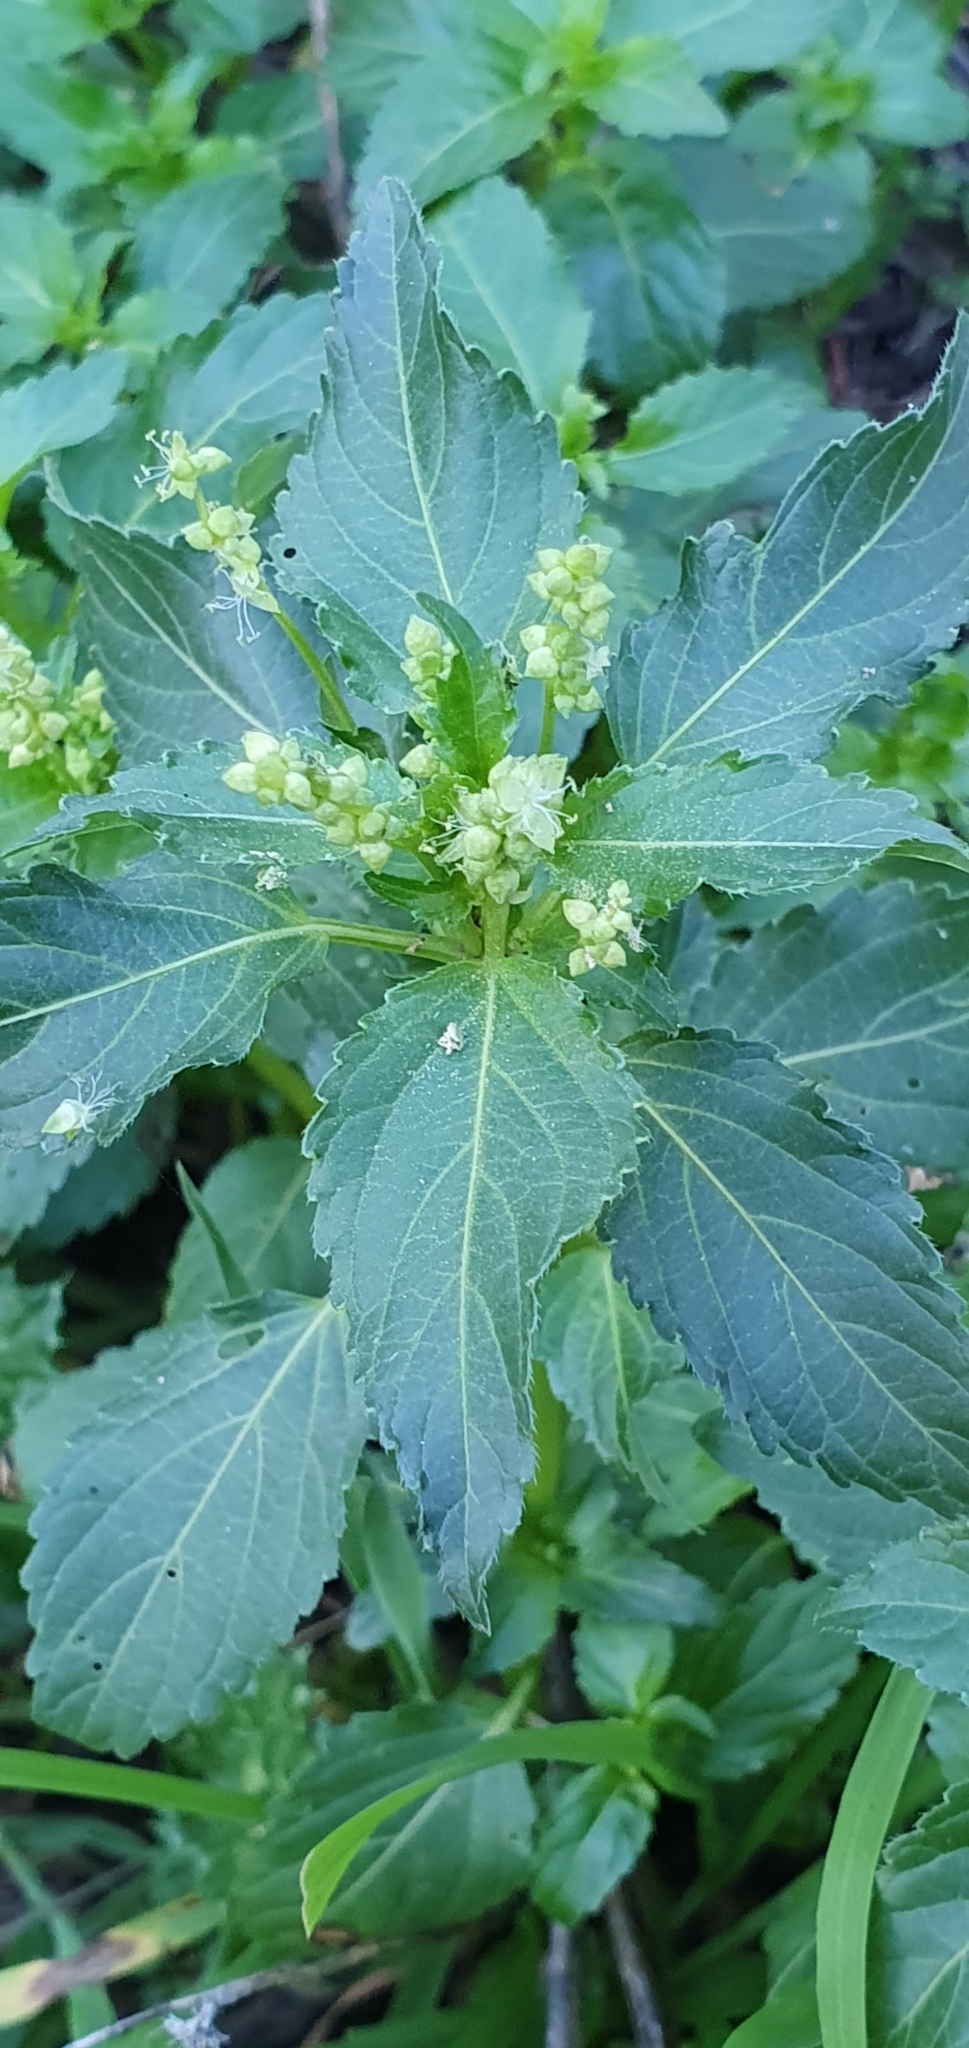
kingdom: Plantae
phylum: Tracheophyta
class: Magnoliopsida
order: Malpighiales
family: Euphorbiaceae
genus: Mercurialis
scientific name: Mercurialis annua
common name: Annual mercury
